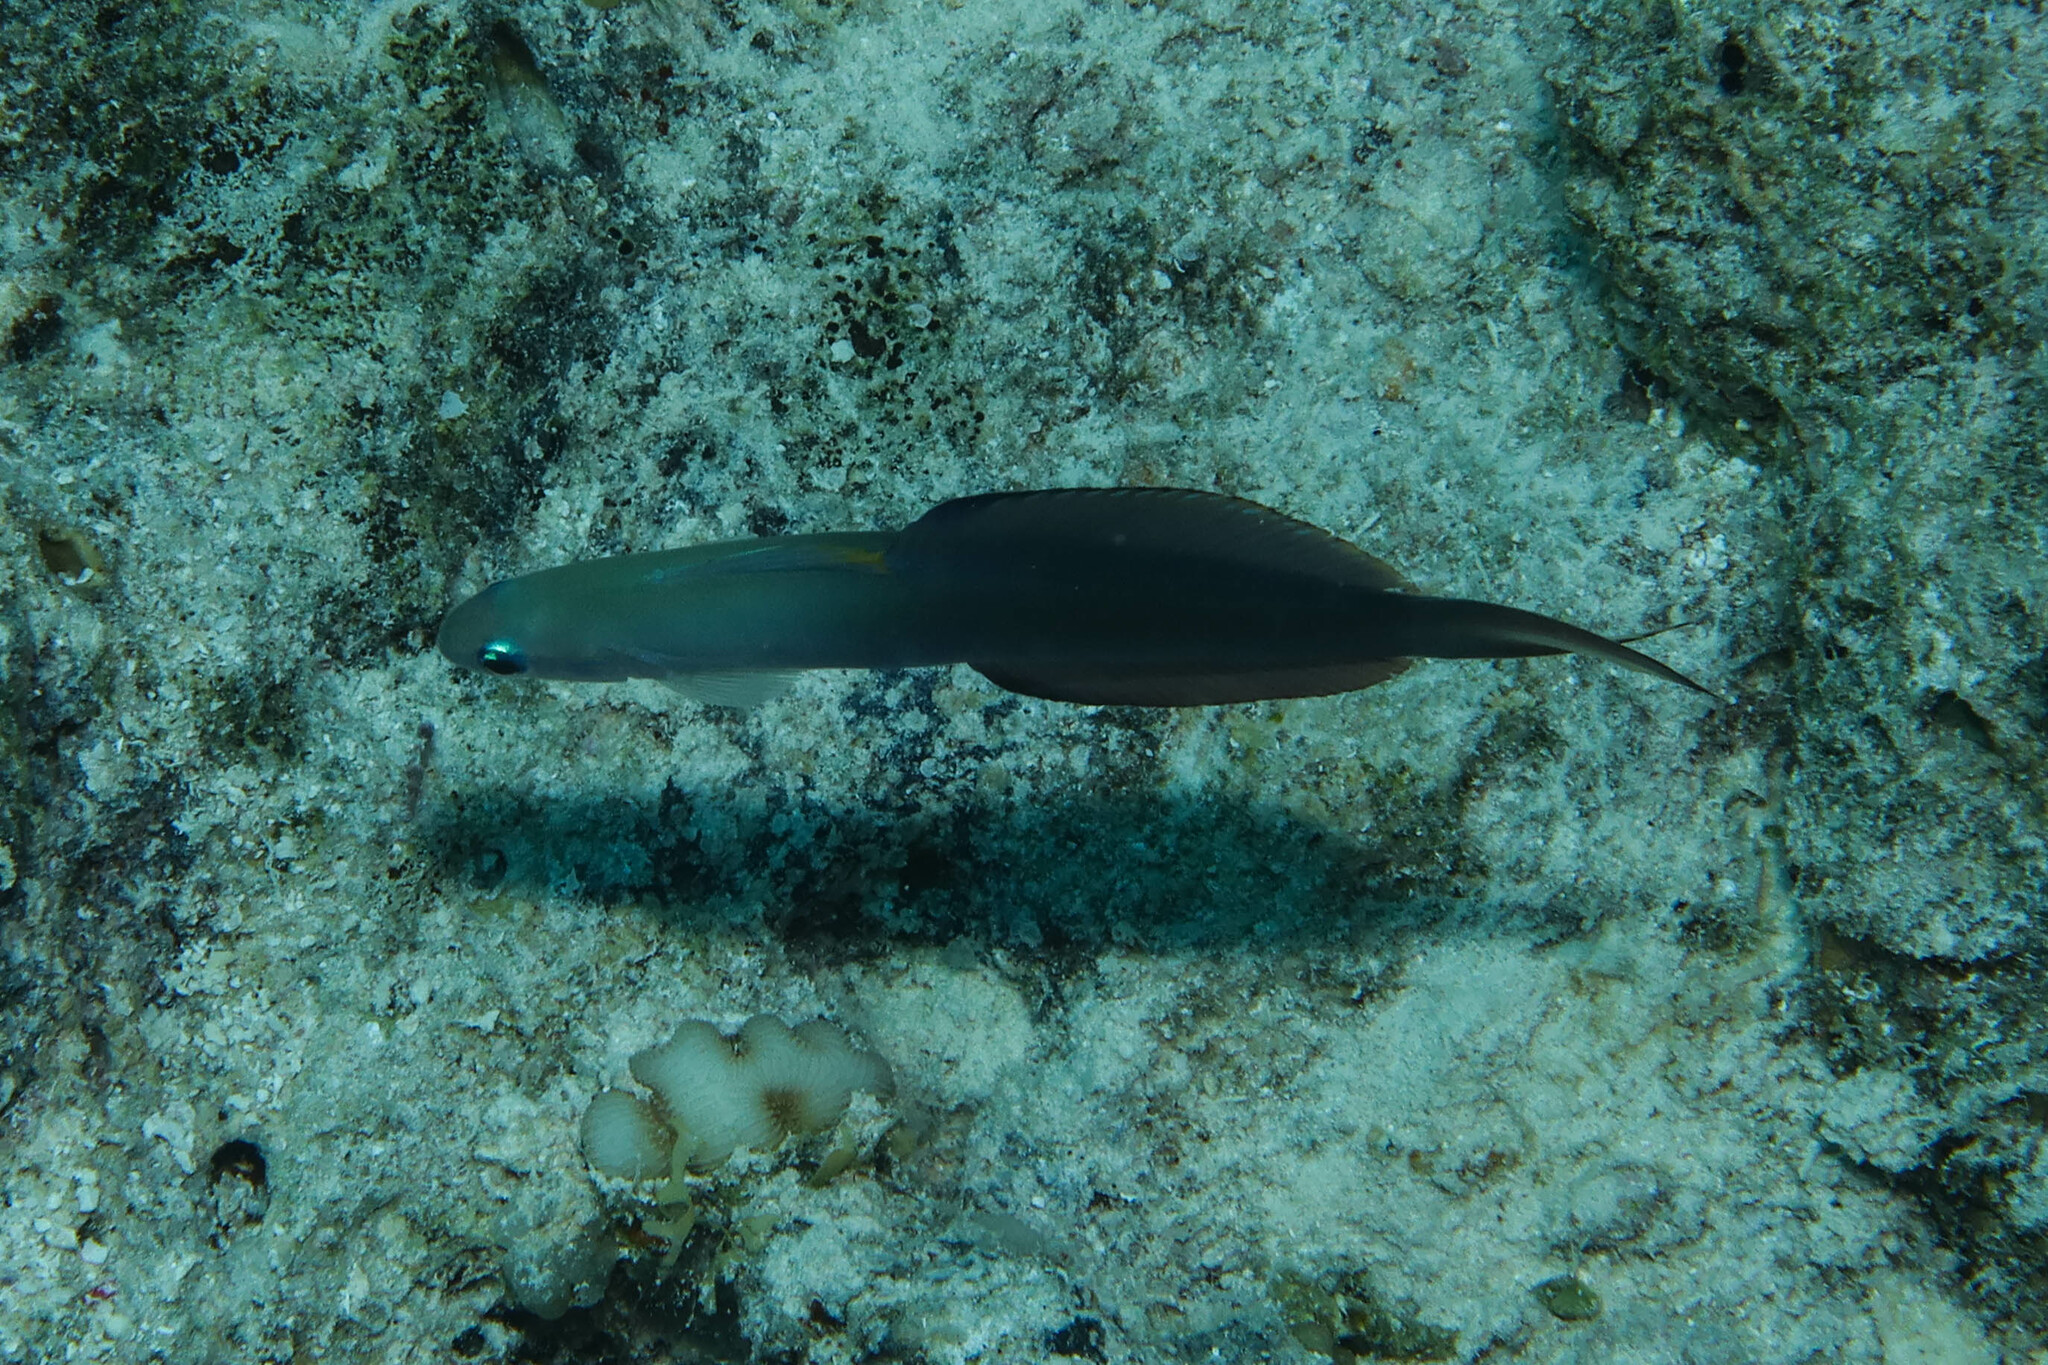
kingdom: Animalia
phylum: Chordata
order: Perciformes
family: Microdesmidae
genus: Ptereleotris
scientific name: Ptereleotris evides
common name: Blackfin dartfish
